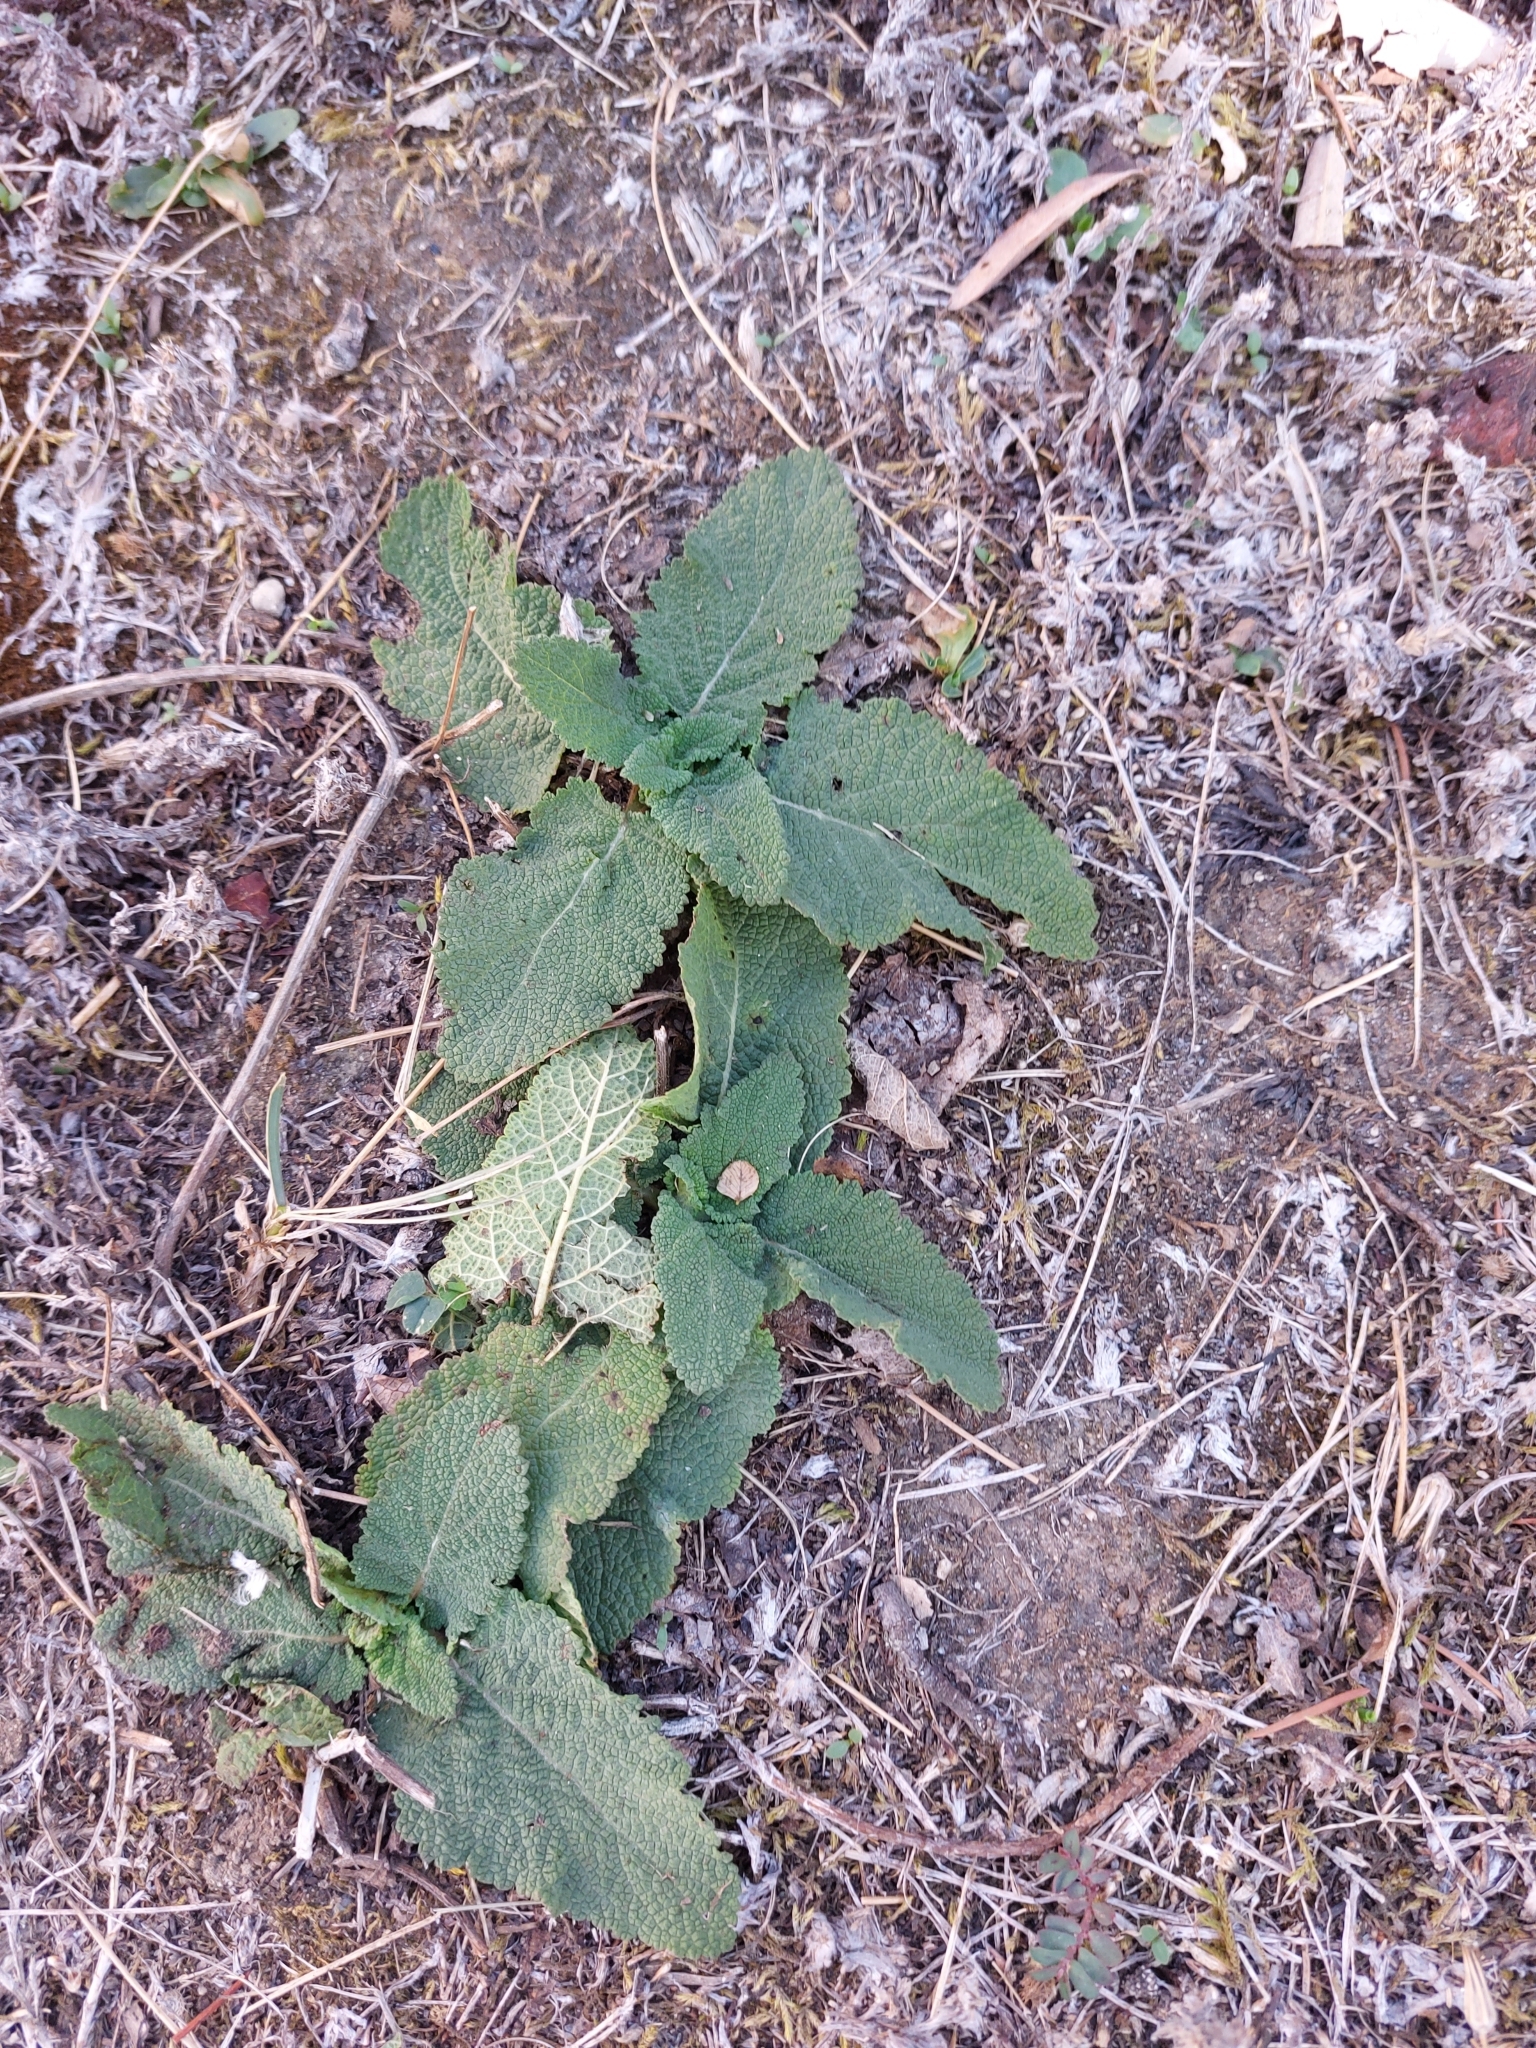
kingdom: Plantae
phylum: Tracheophyta
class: Magnoliopsida
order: Lamiales
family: Lamiaceae
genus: Salvia
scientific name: Salvia pratensis
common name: Meadow sage
